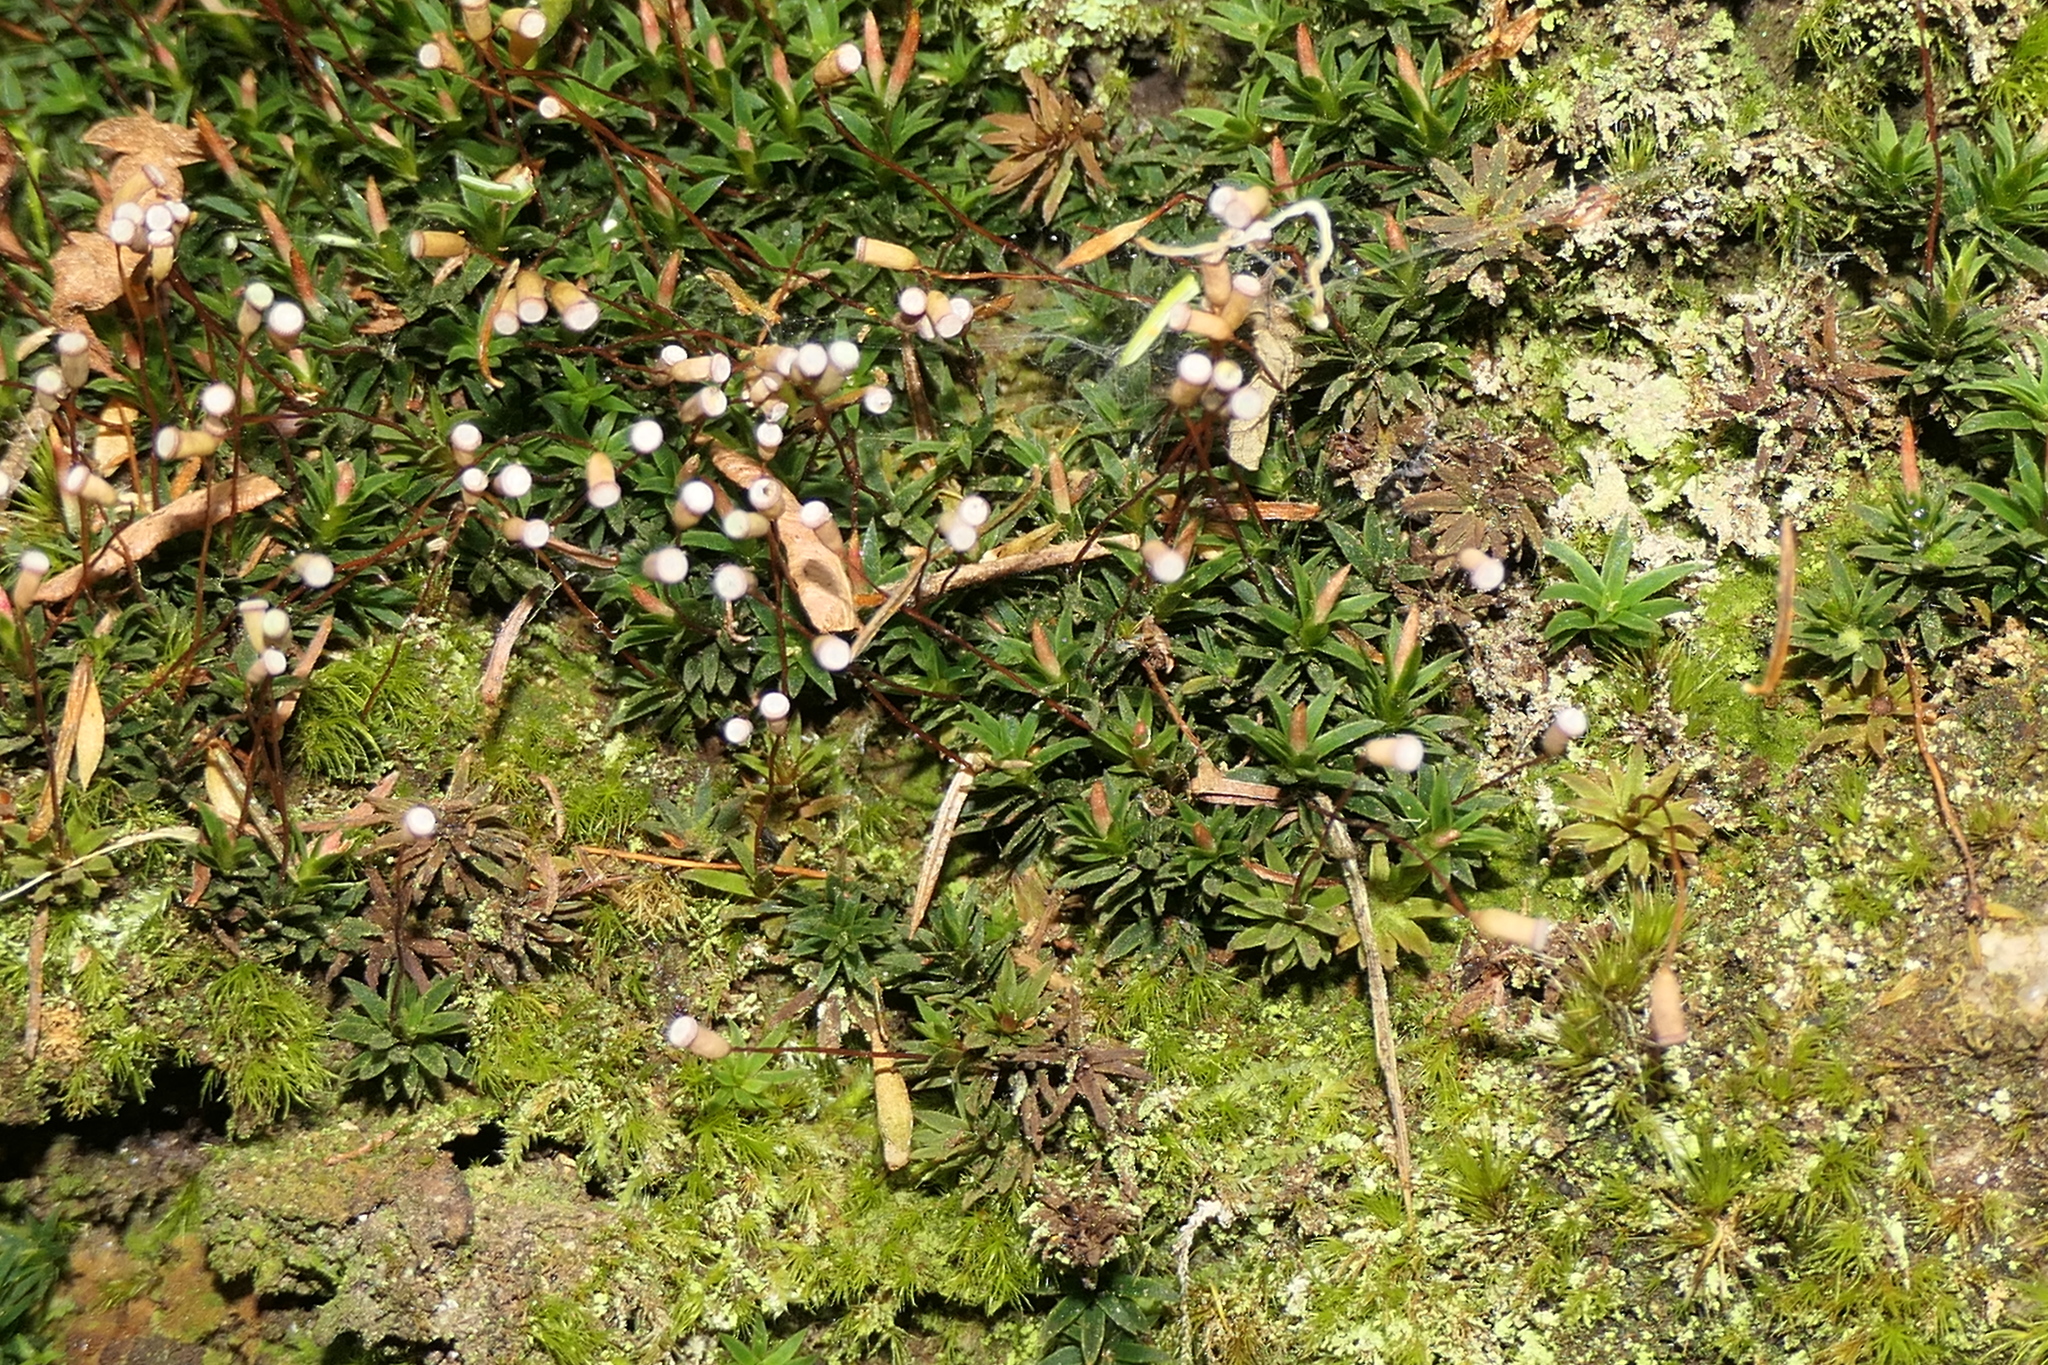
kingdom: Plantae
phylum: Bryophyta
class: Polytrichopsida
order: Polytrichales
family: Polytrichaceae
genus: Pogonatum
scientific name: Pogonatum aloides
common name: Aloe haircap
